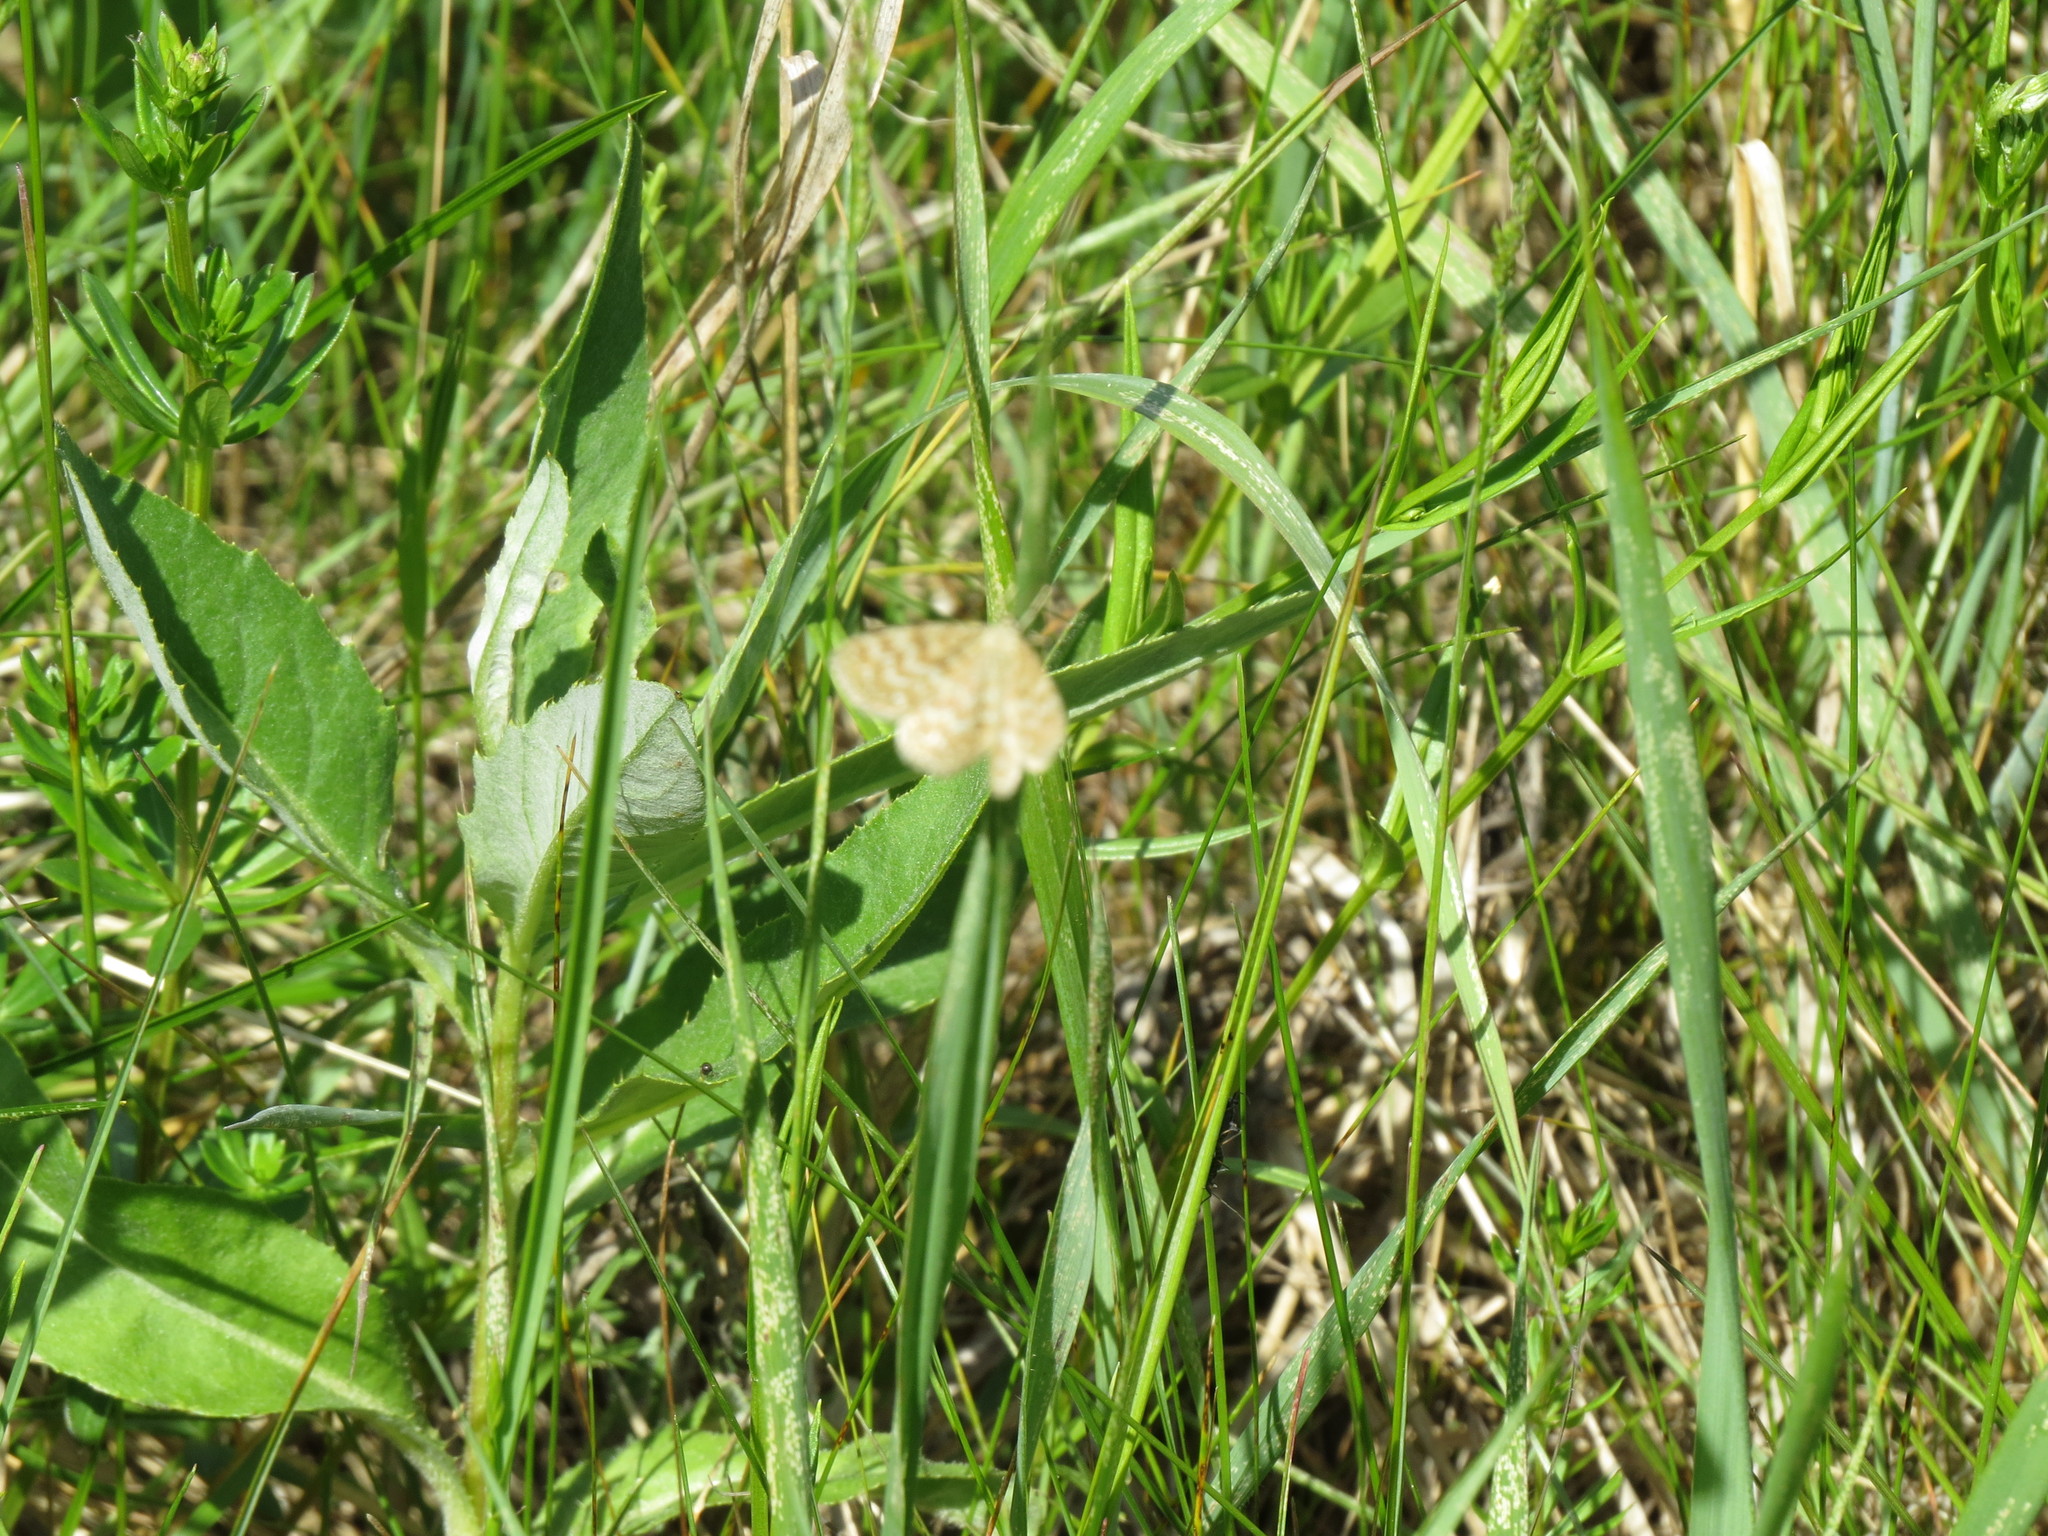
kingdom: Animalia
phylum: Arthropoda
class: Insecta
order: Lepidoptera
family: Geometridae
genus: Scopula
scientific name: Scopula immorata
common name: Lewes wave
